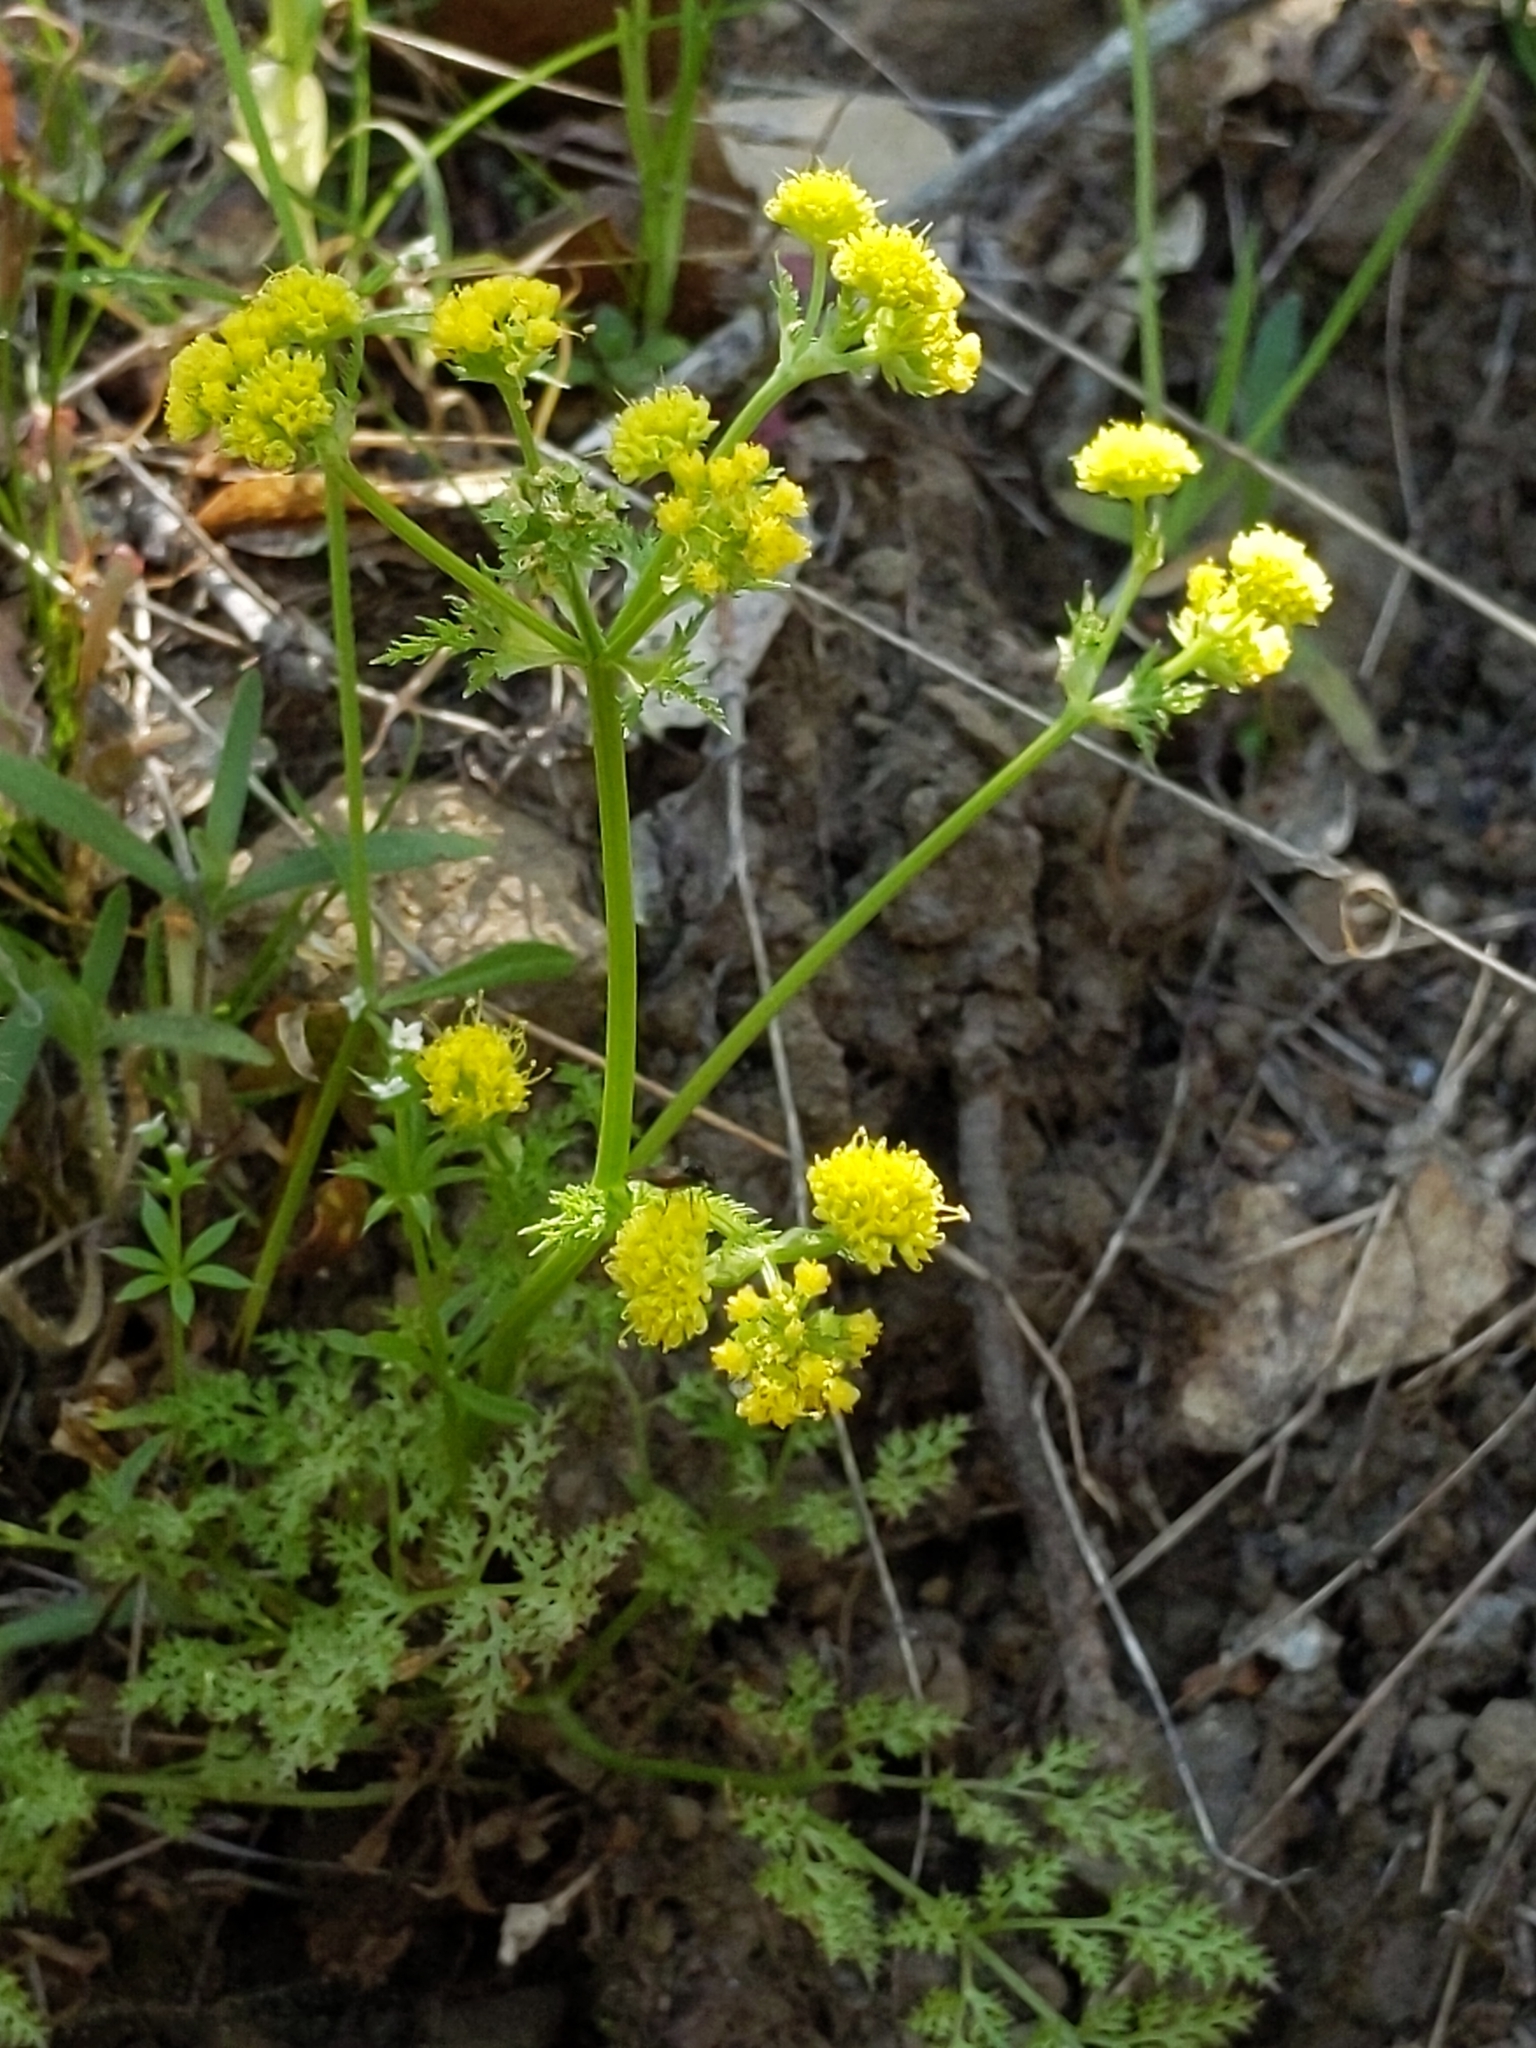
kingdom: Plantae
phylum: Tracheophyta
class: Magnoliopsida
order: Apiales
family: Apiaceae
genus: Sanicula
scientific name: Sanicula tuberosa
